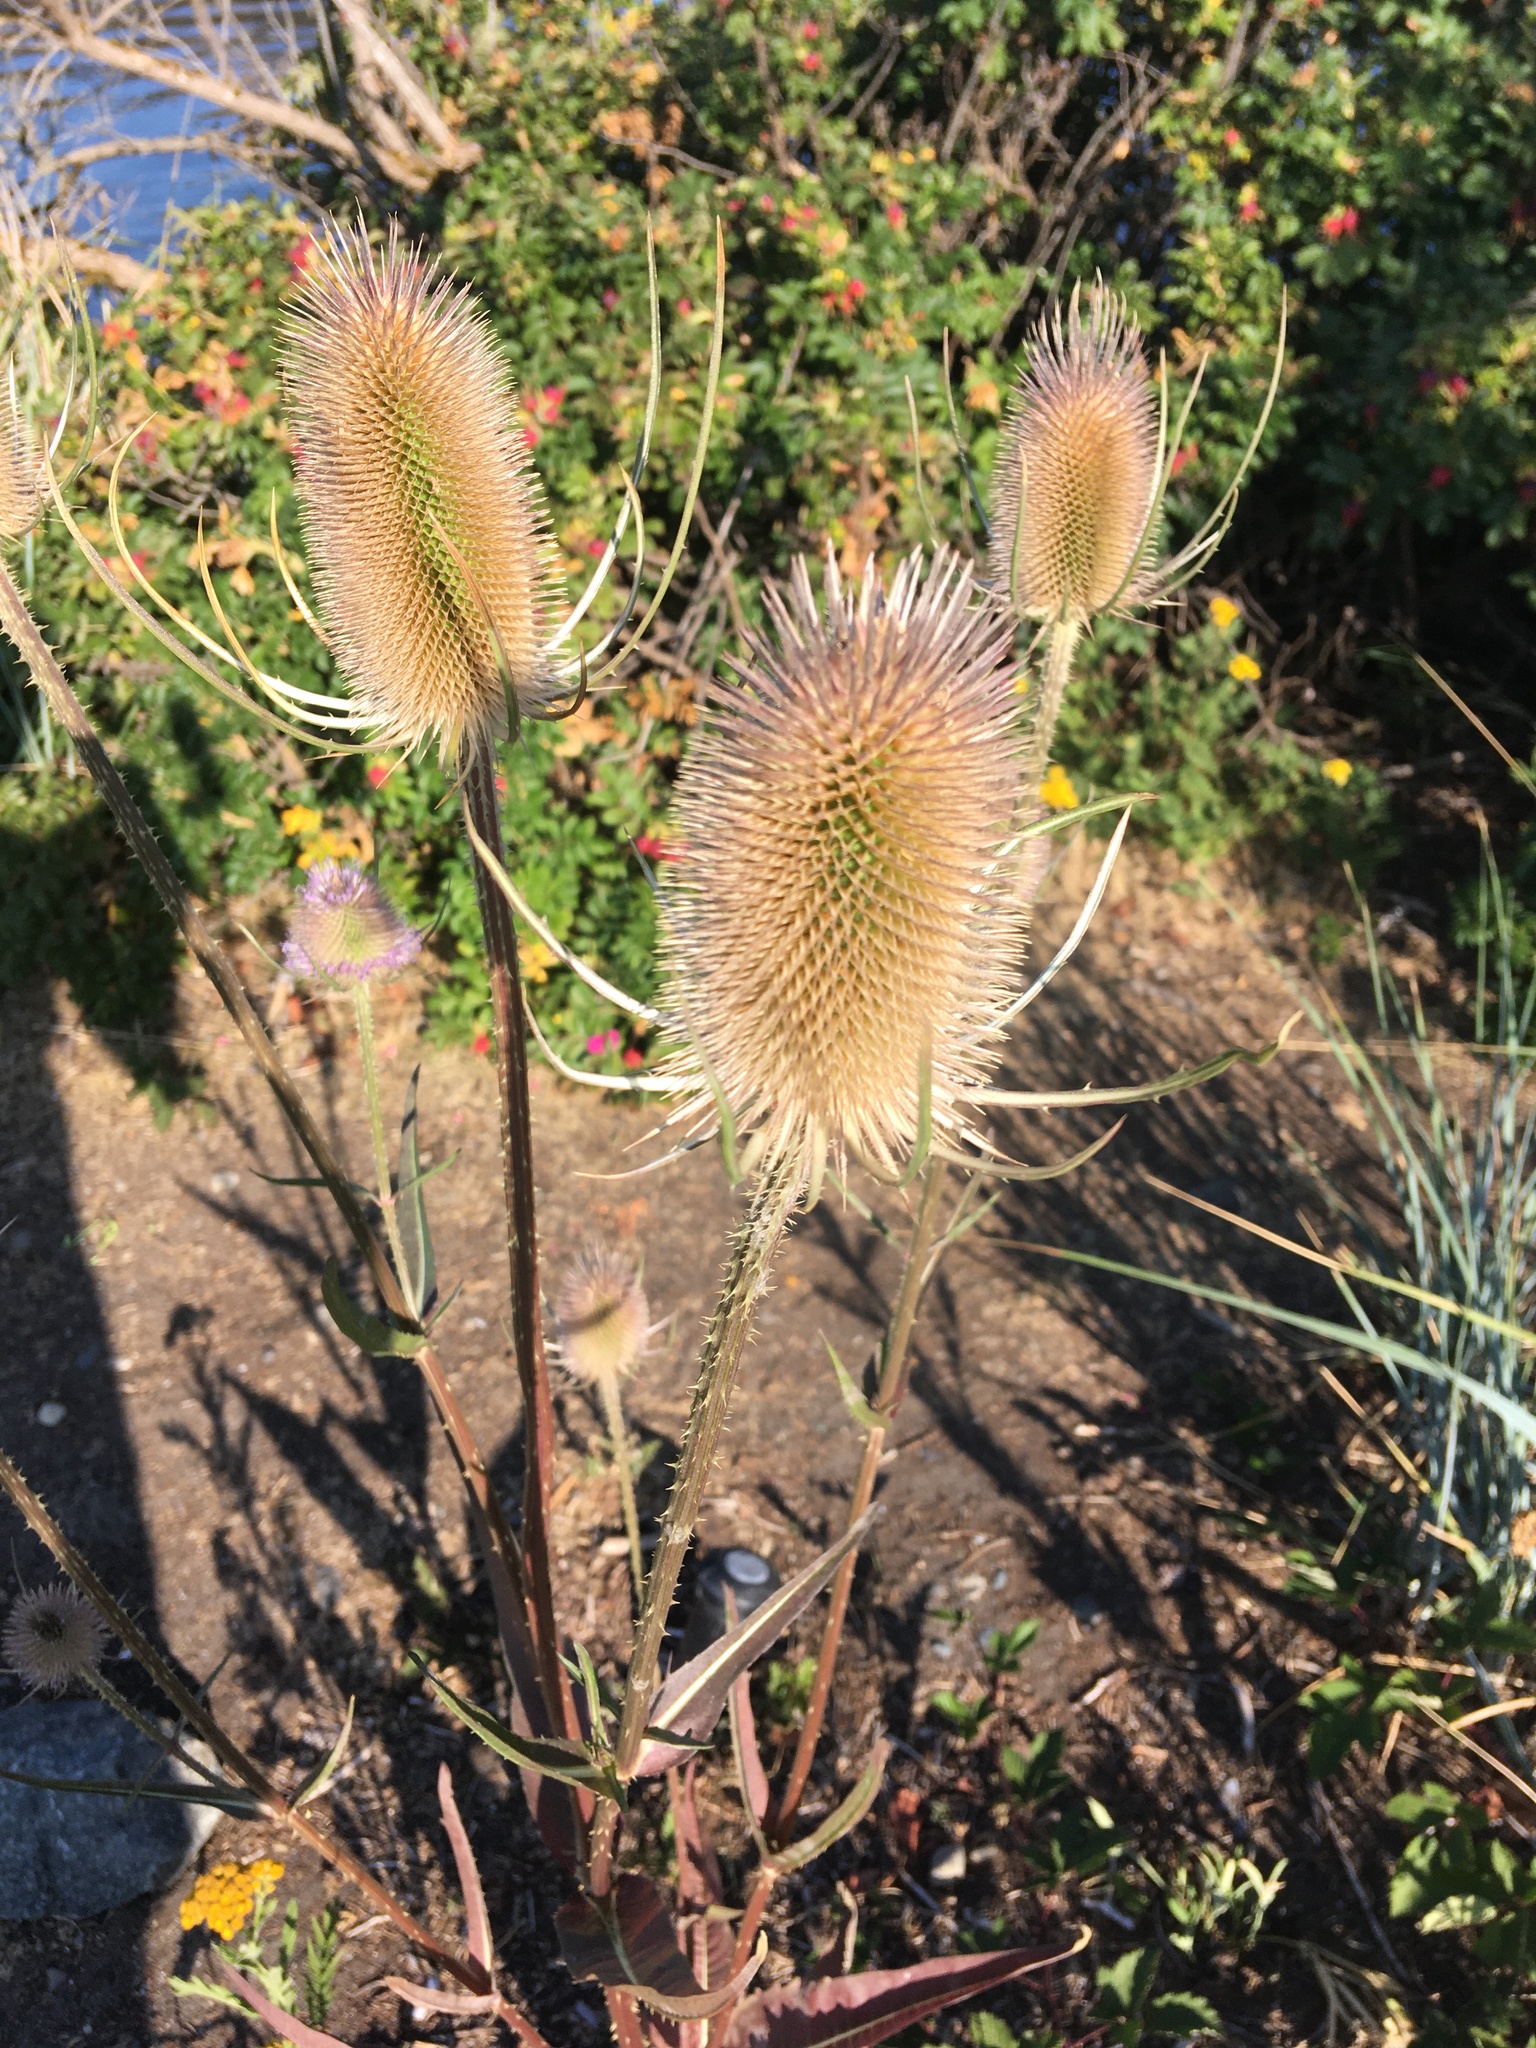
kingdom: Plantae
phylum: Tracheophyta
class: Magnoliopsida
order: Dipsacales
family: Caprifoliaceae
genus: Dipsacus
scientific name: Dipsacus fullonum
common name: Teasel
